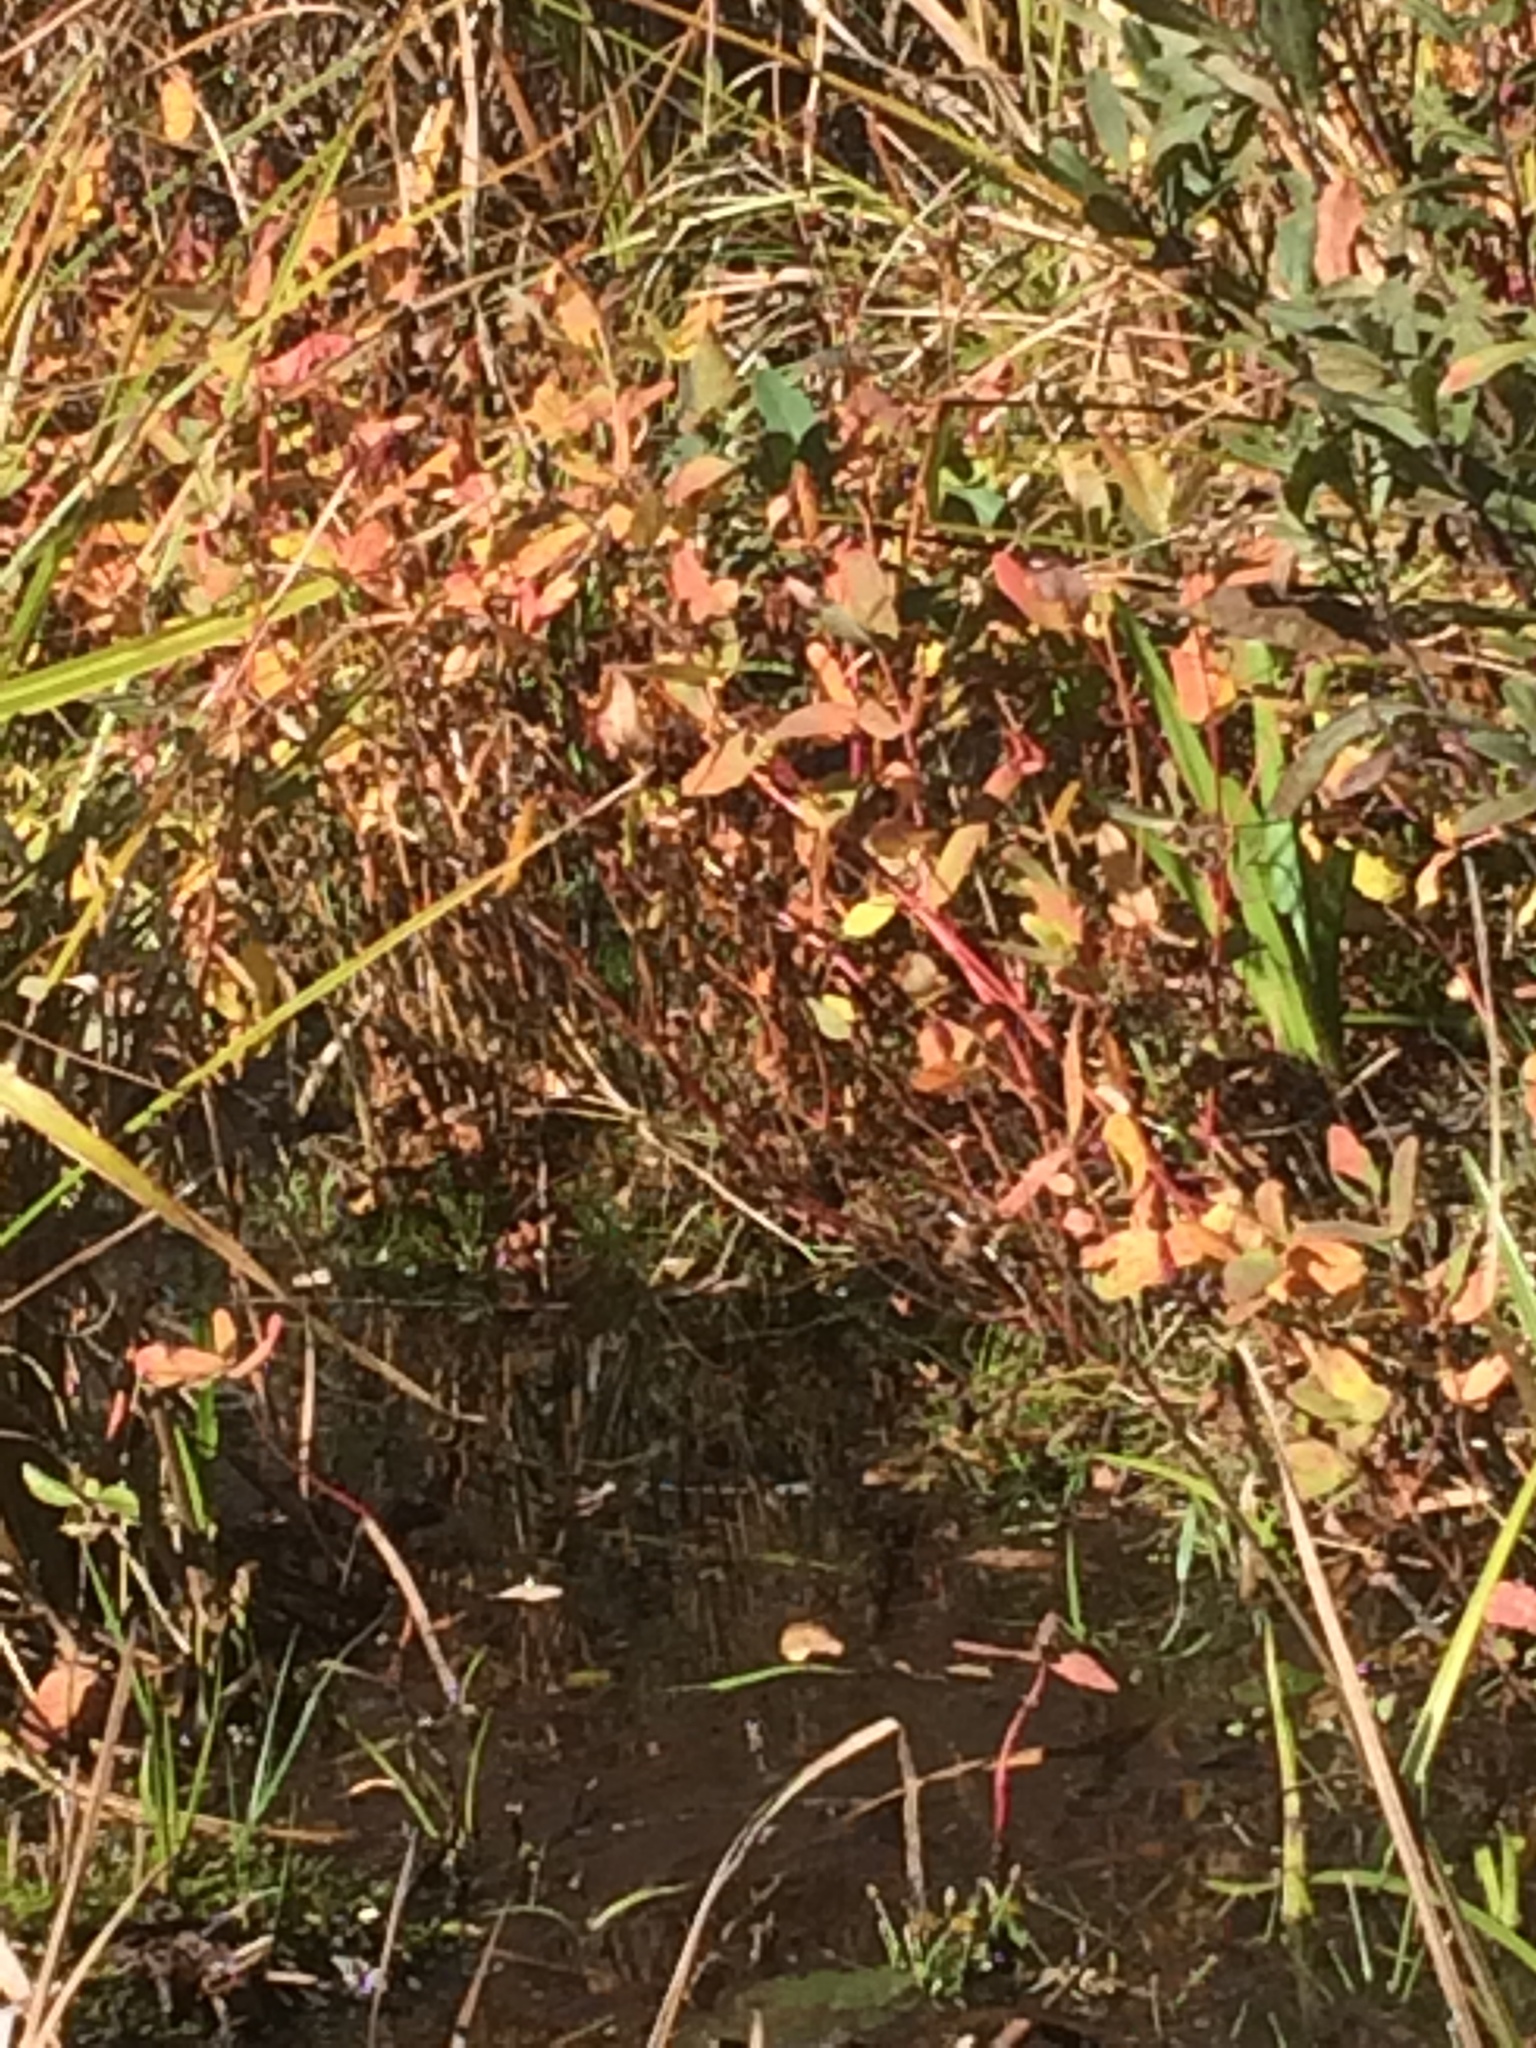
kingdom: Plantae
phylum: Tracheophyta
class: Magnoliopsida
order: Malpighiales
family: Hypericaceae
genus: Triadenum
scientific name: Triadenum virginicum
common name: Marsh st. john's-wort
